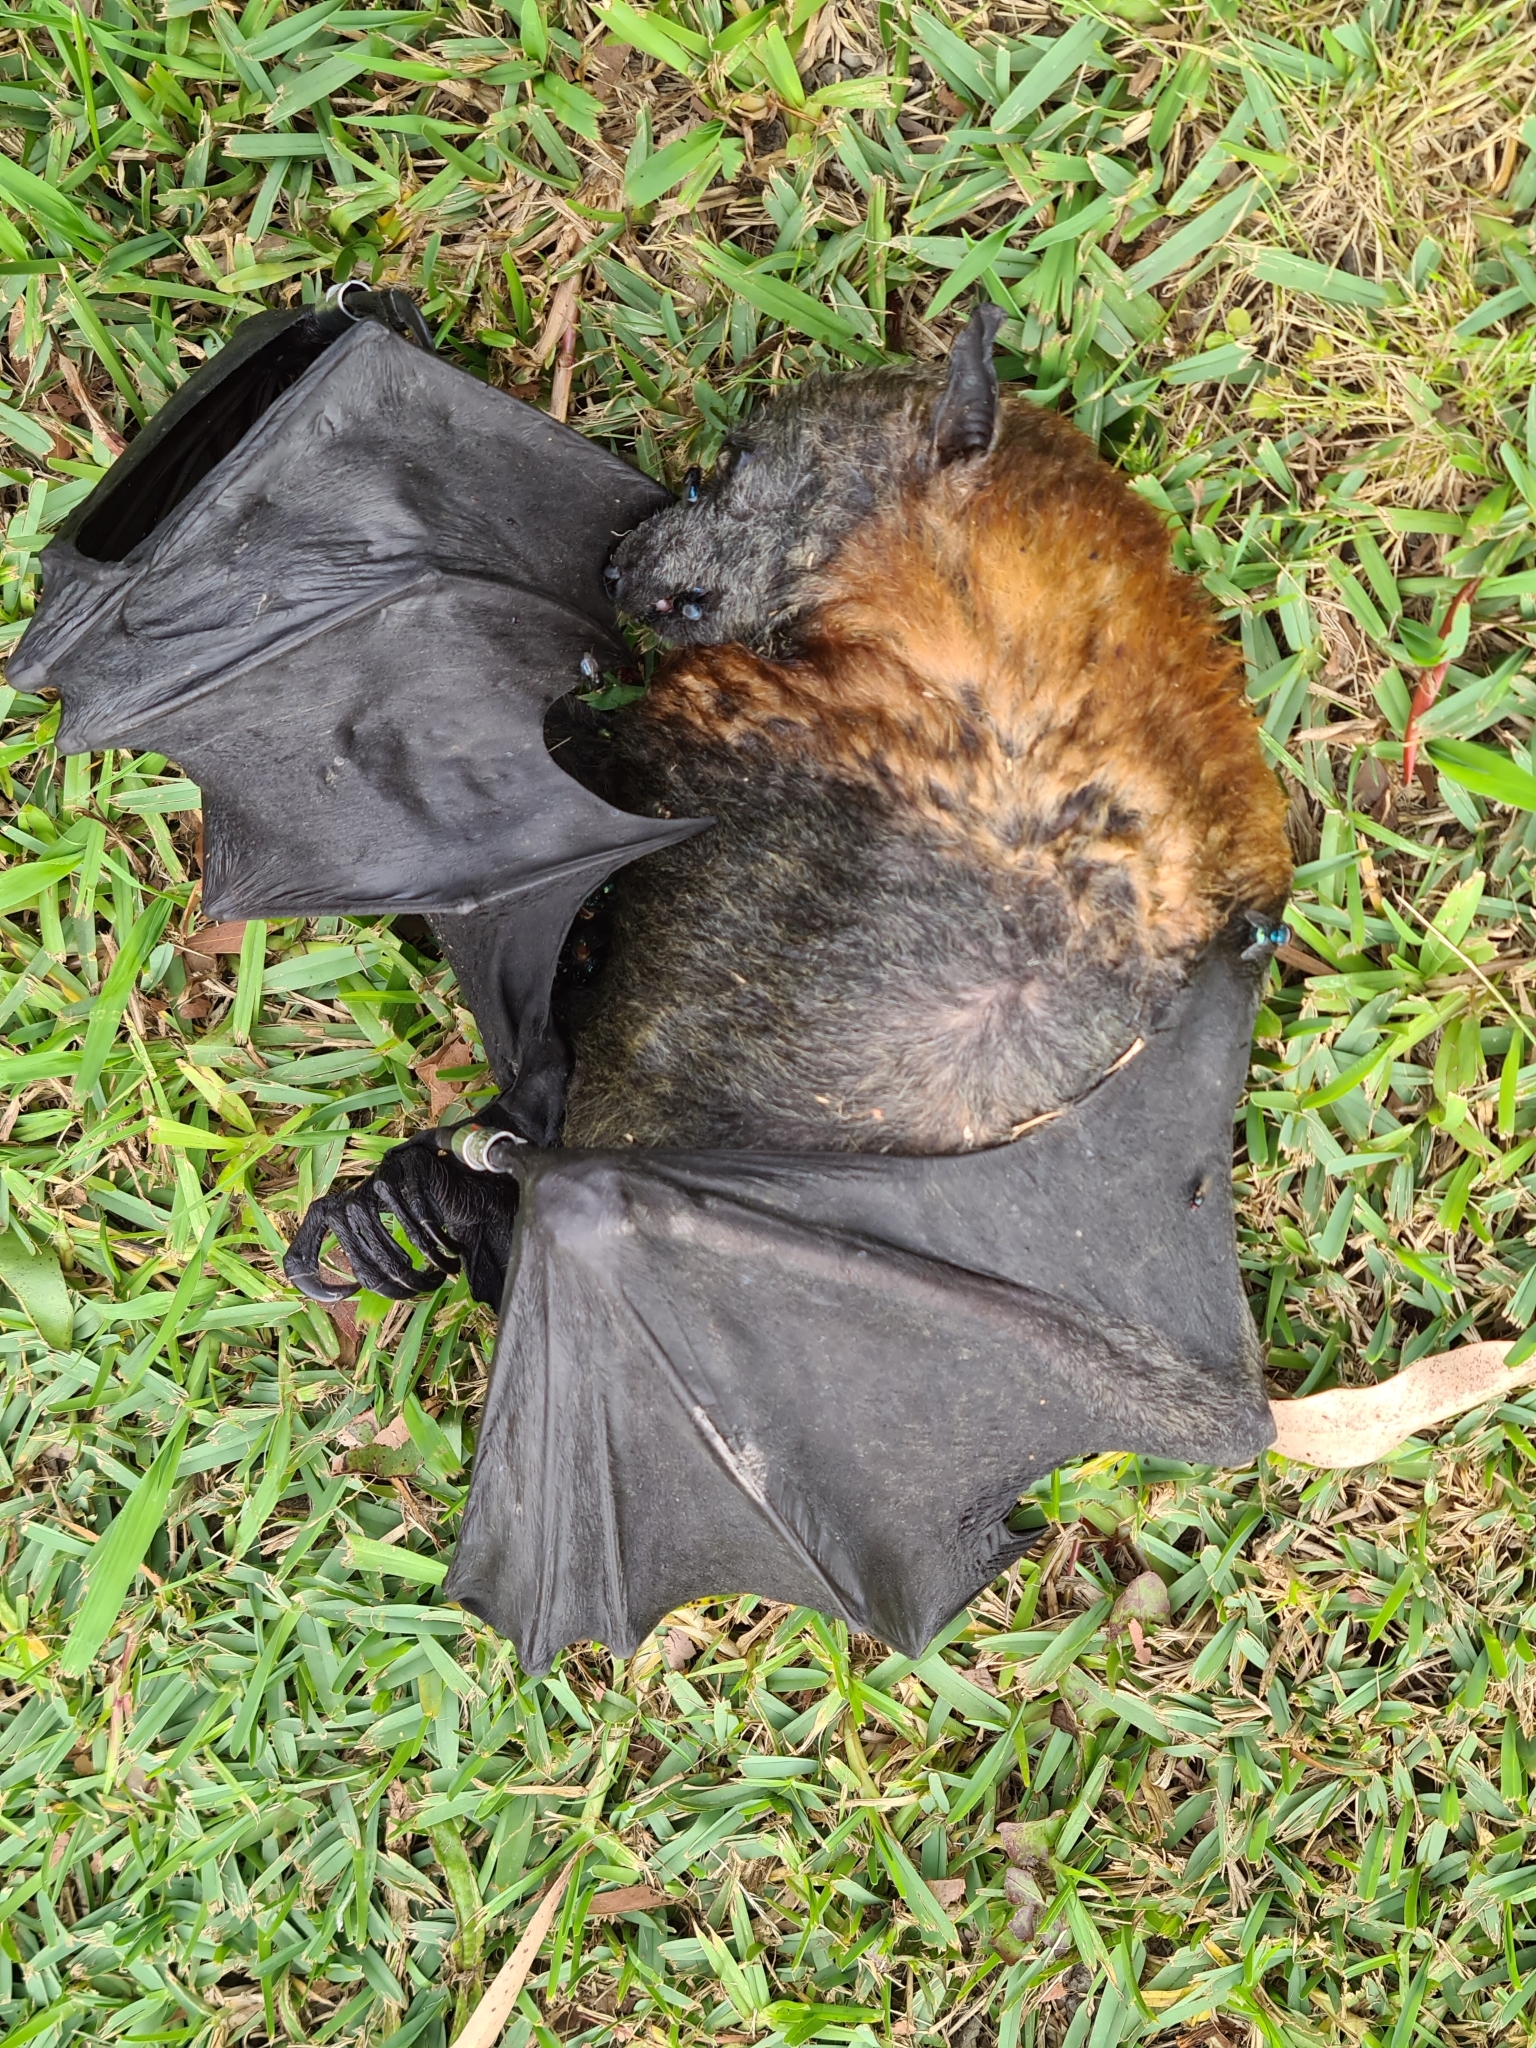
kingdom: Animalia
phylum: Chordata
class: Mammalia
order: Chiroptera
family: Pteropodidae
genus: Pteropus
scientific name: Pteropus poliocephalus
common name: Gray-headed flying fox
